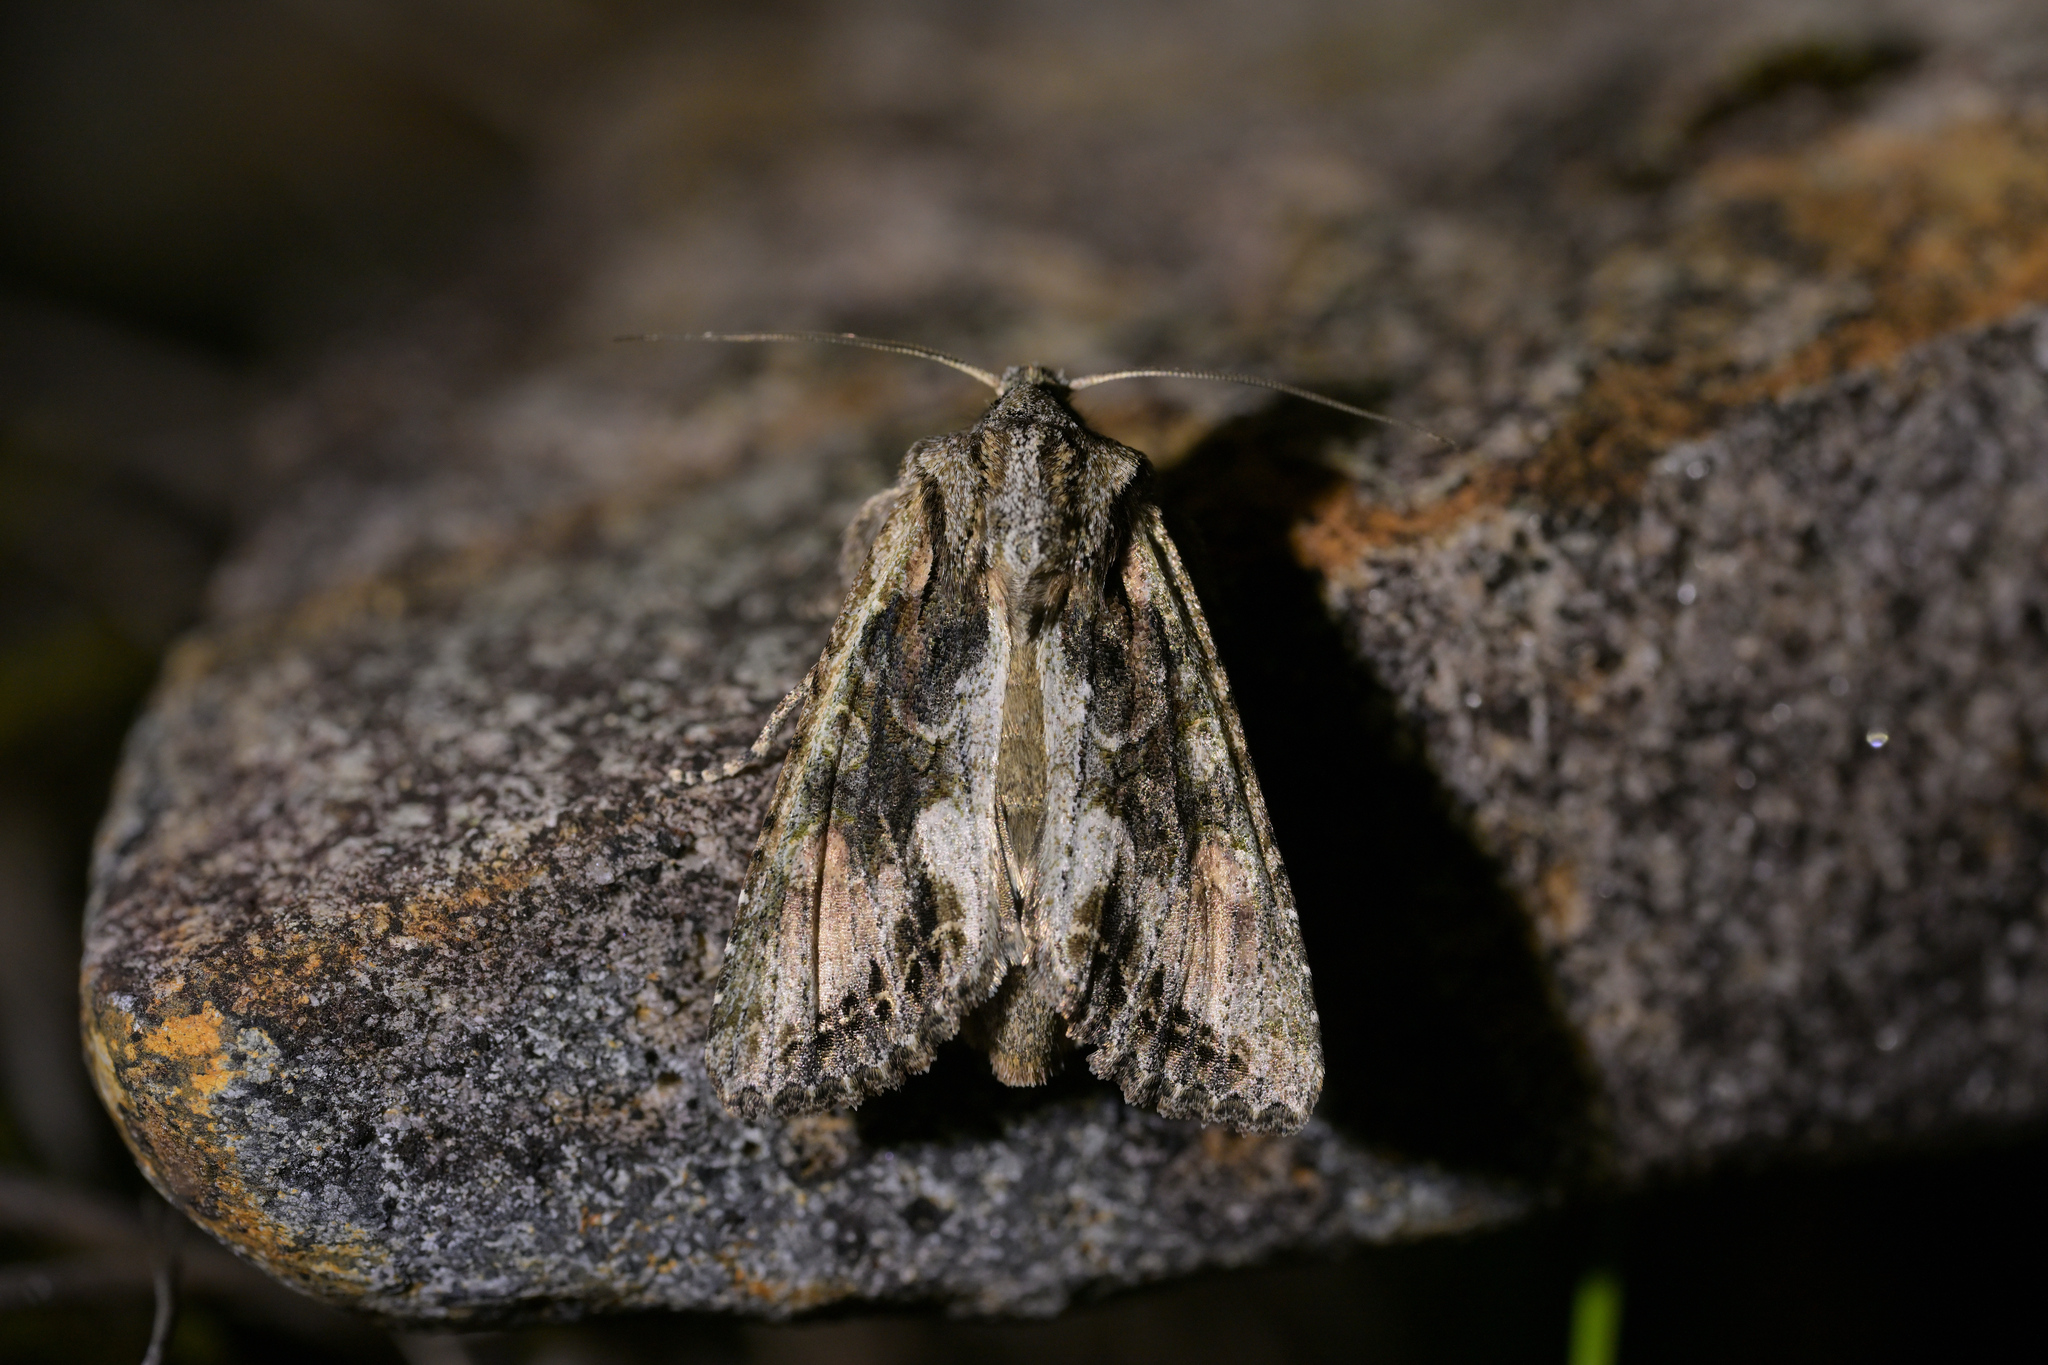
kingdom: Animalia
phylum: Arthropoda
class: Insecta
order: Lepidoptera
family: Noctuidae
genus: Ichneutica
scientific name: Ichneutica mutans
